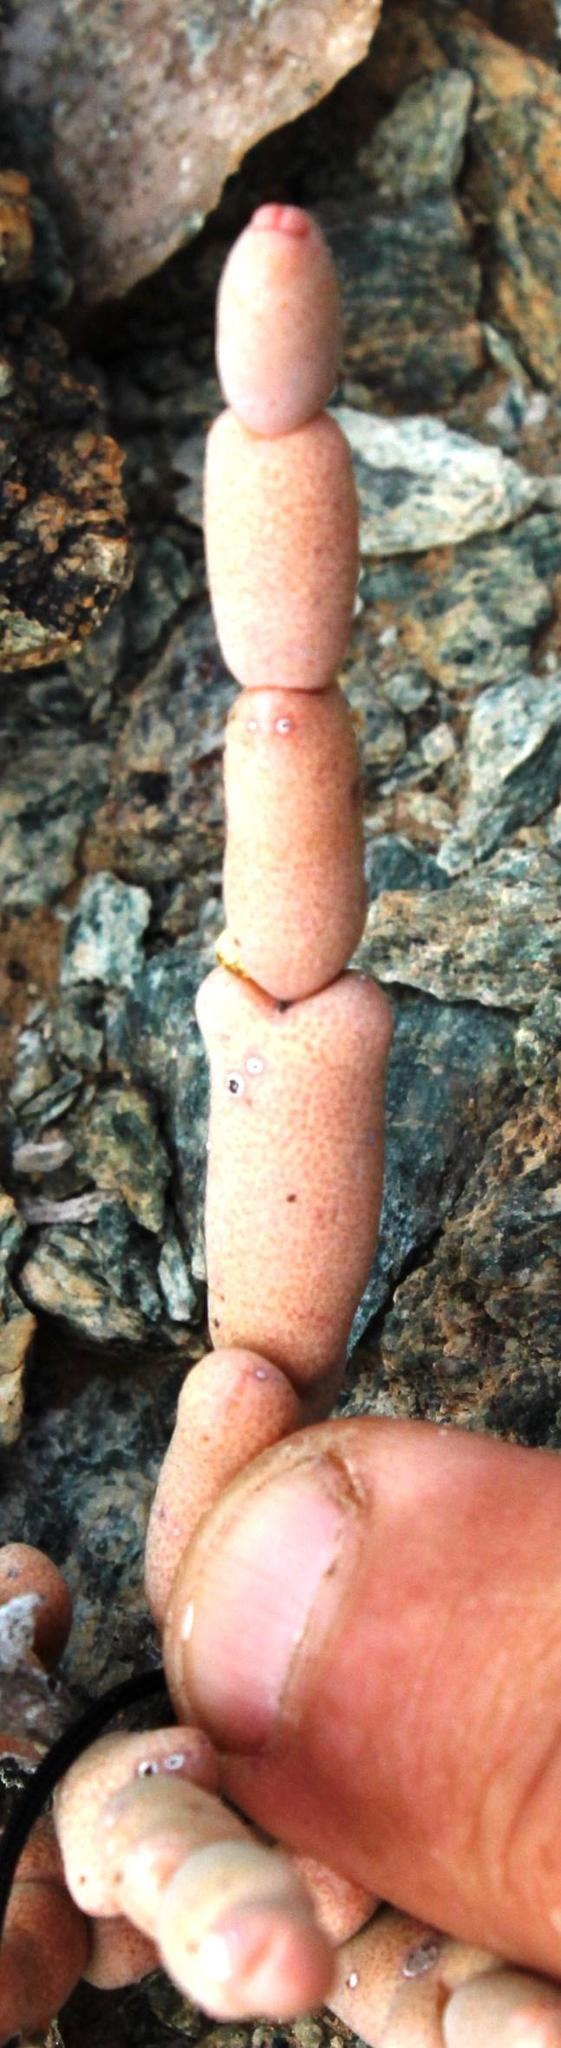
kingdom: Plantae
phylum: Tracheophyta
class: Magnoliopsida
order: Caryophyllales
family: Aizoaceae
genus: Ruschia
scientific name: Ruschia abbreviata
